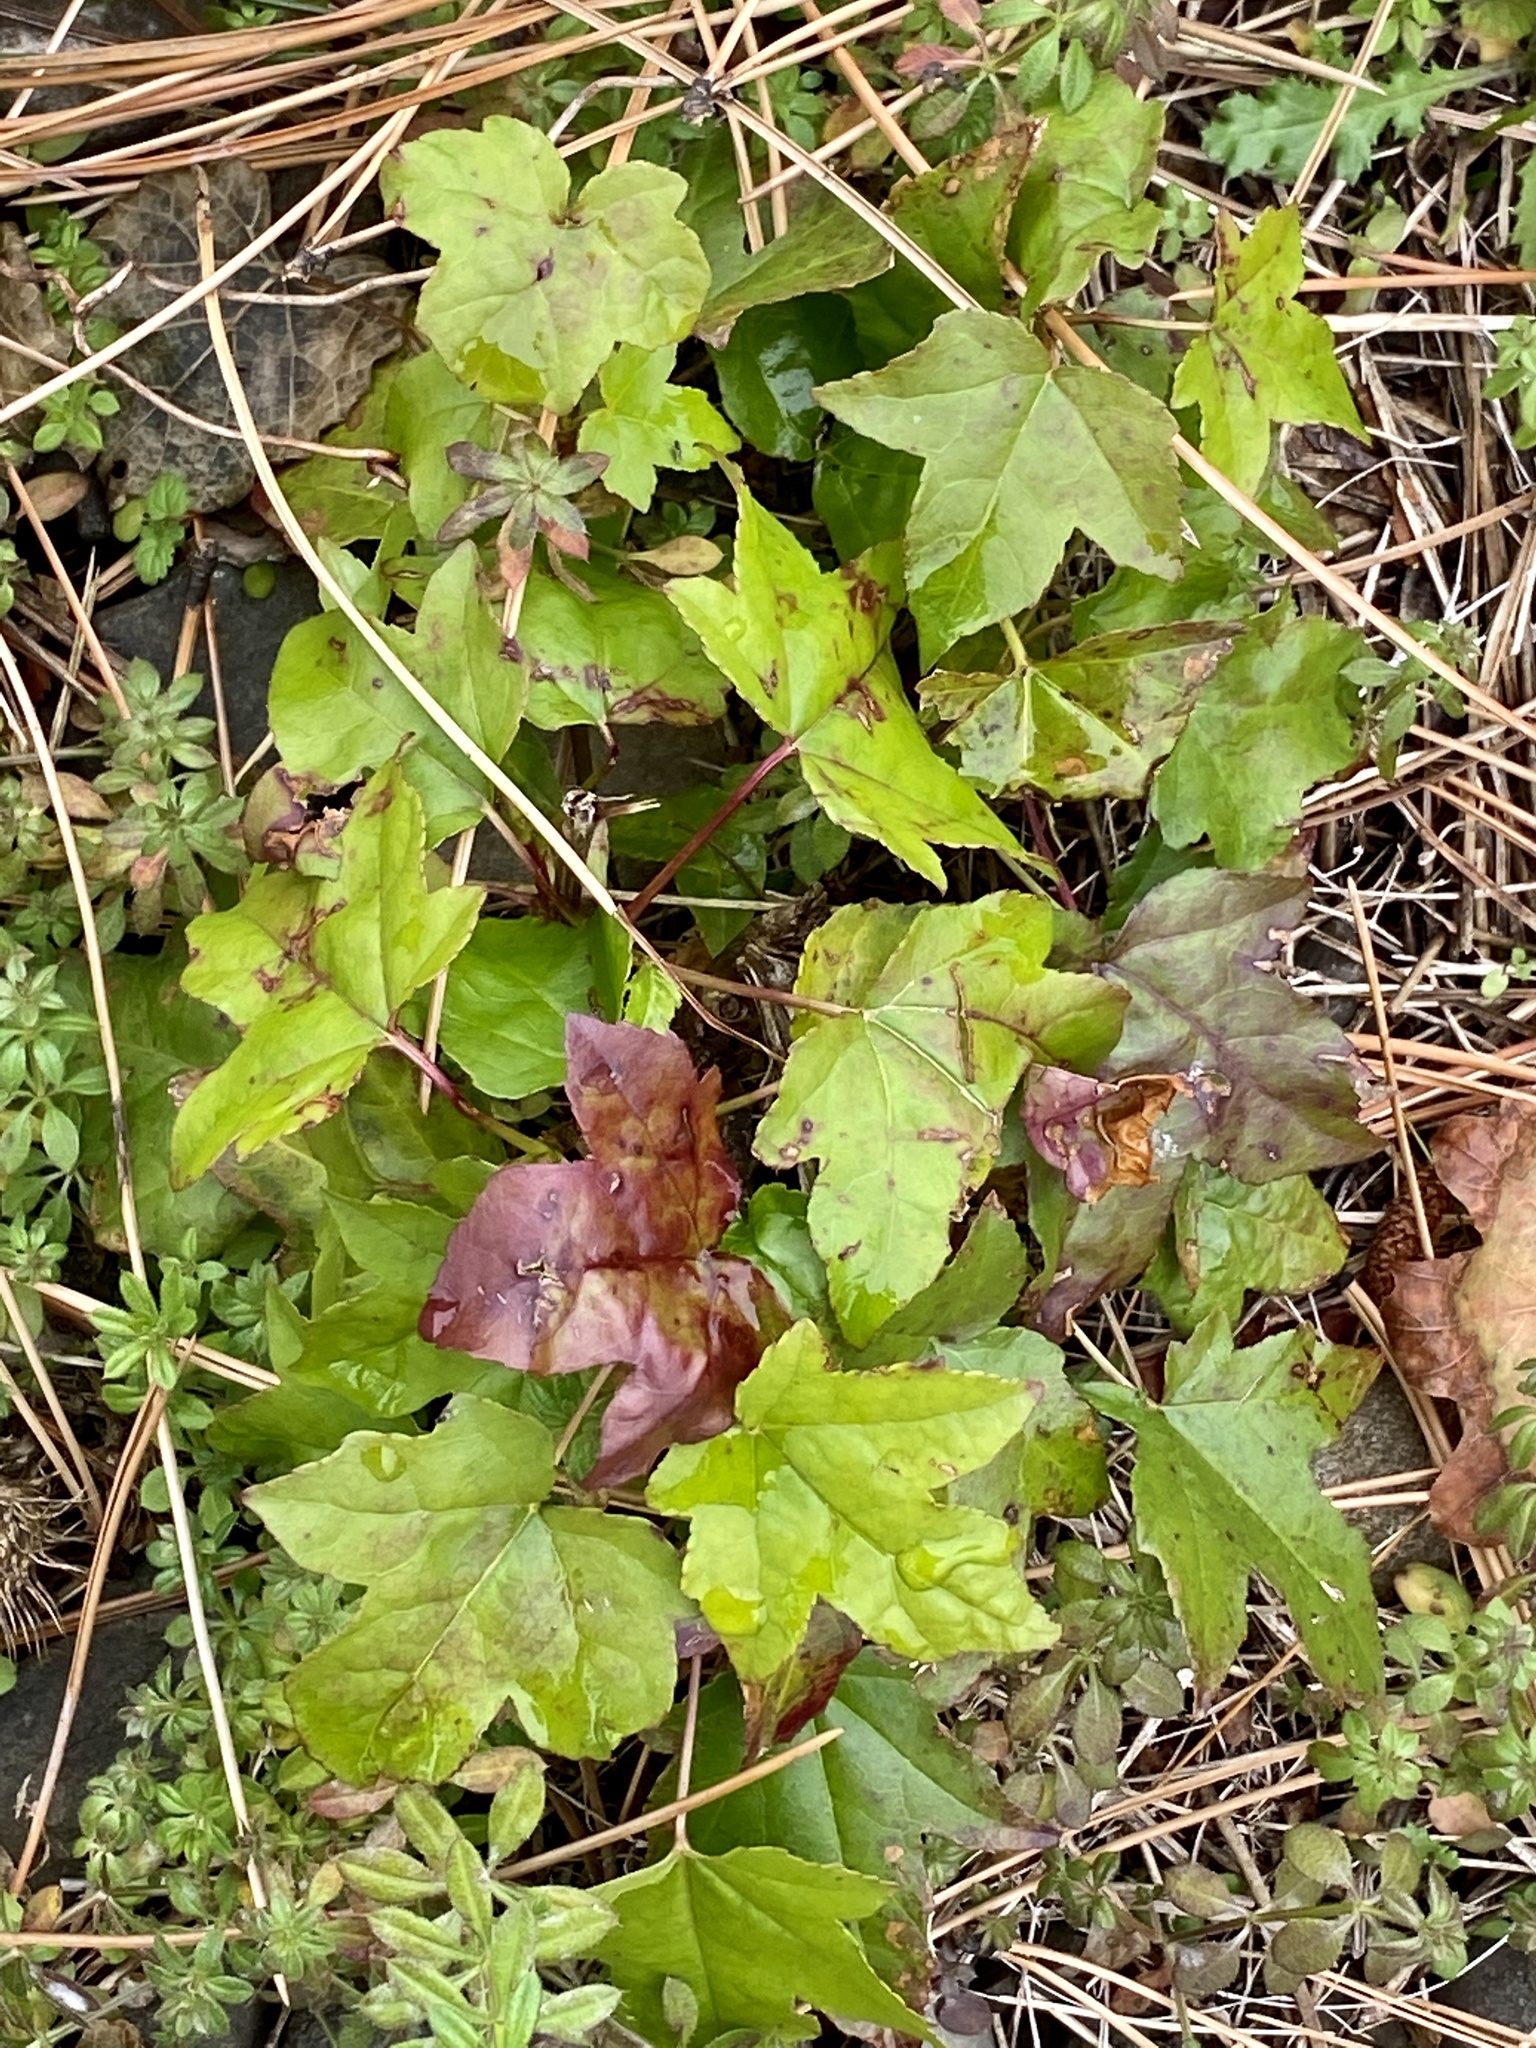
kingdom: Plantae
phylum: Tracheophyta
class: Magnoliopsida
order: Saxifragales
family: Altingiaceae
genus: Liquidambar
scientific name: Liquidambar styraciflua
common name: Sweet gum
